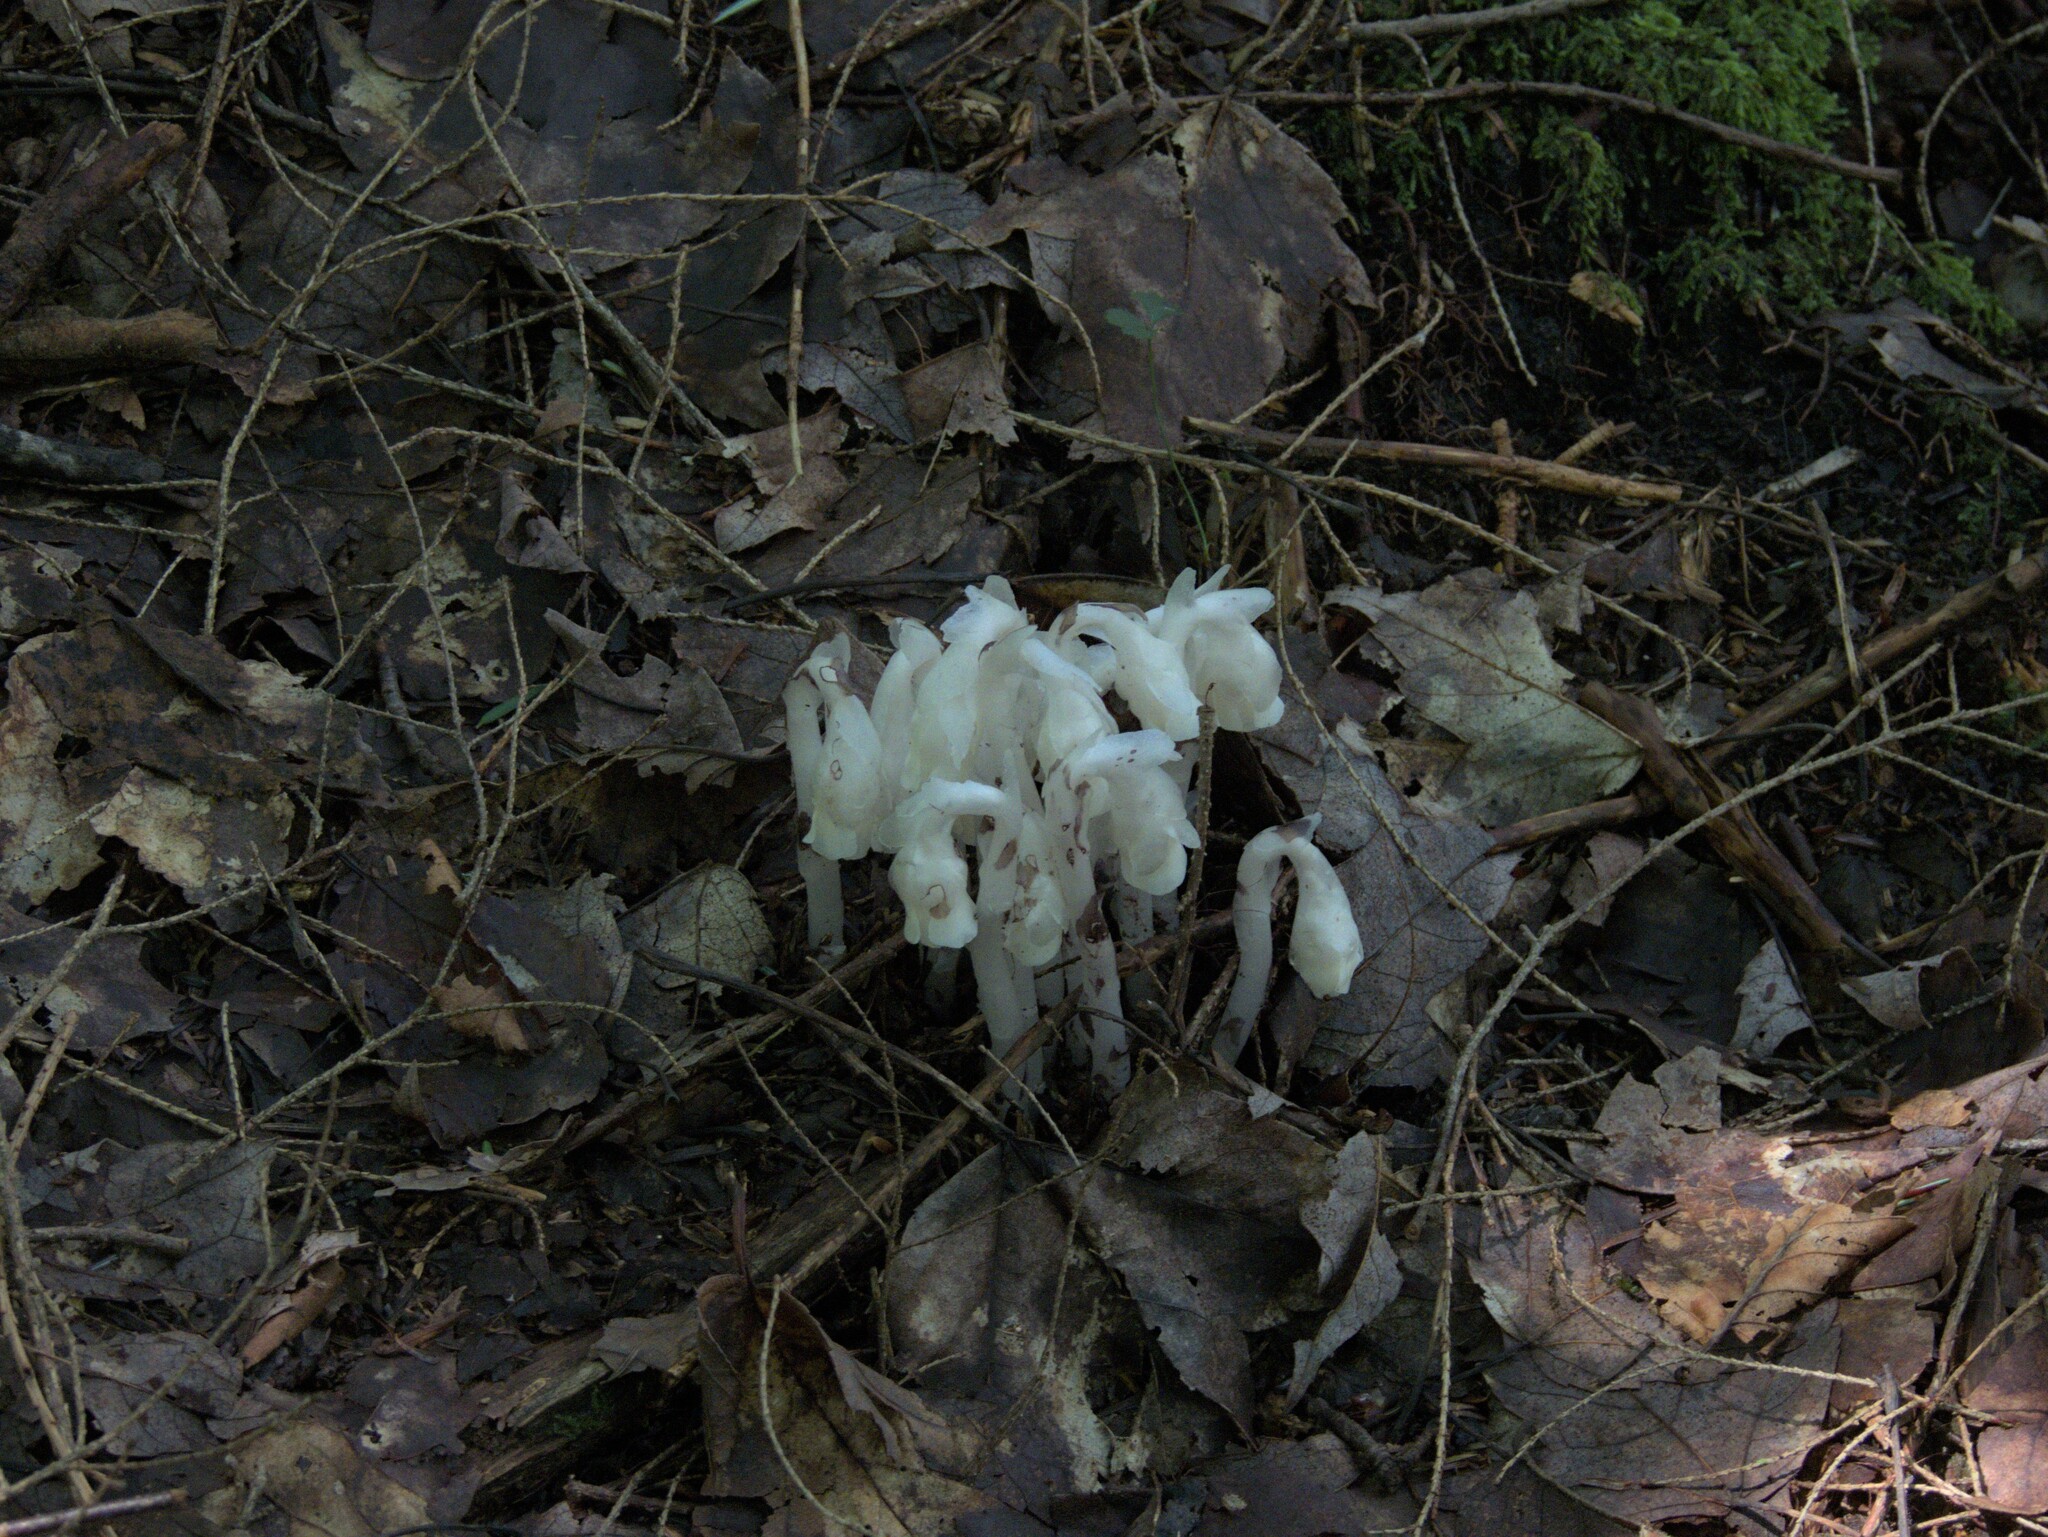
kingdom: Plantae
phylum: Tracheophyta
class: Magnoliopsida
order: Ericales
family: Ericaceae
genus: Monotropa
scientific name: Monotropa uniflora
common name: Convulsion root
